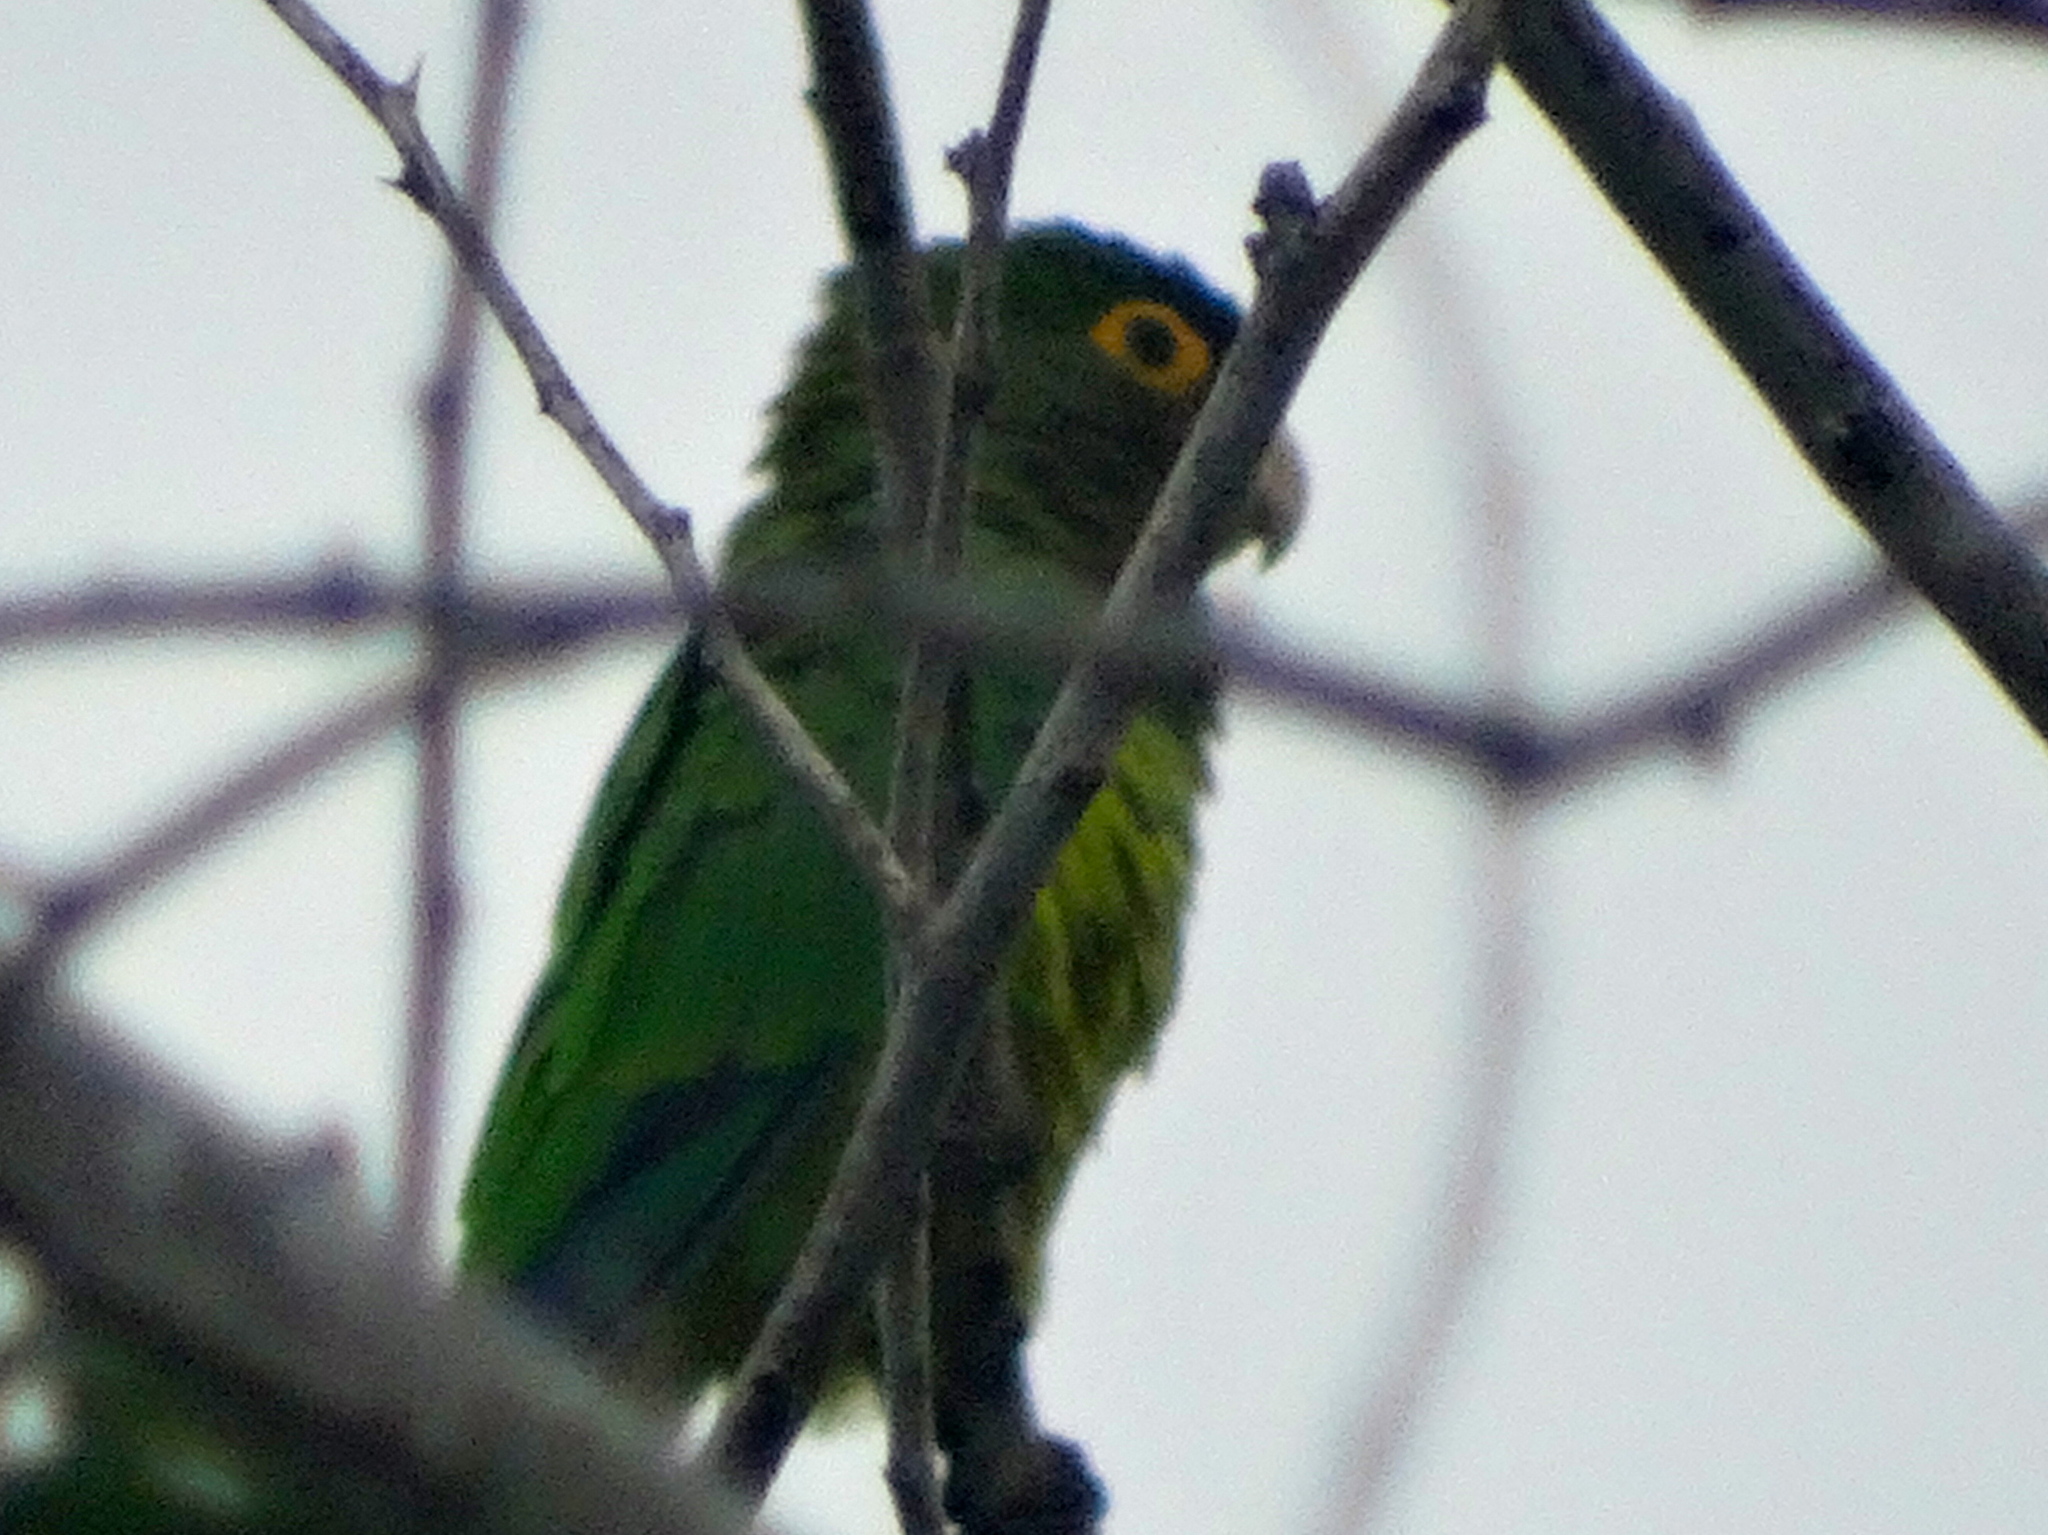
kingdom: Animalia
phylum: Chordata
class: Aves
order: Psittaciformes
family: Psittacidae
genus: Aratinga
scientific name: Aratinga canicularis
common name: Orange-fronted parakeet
